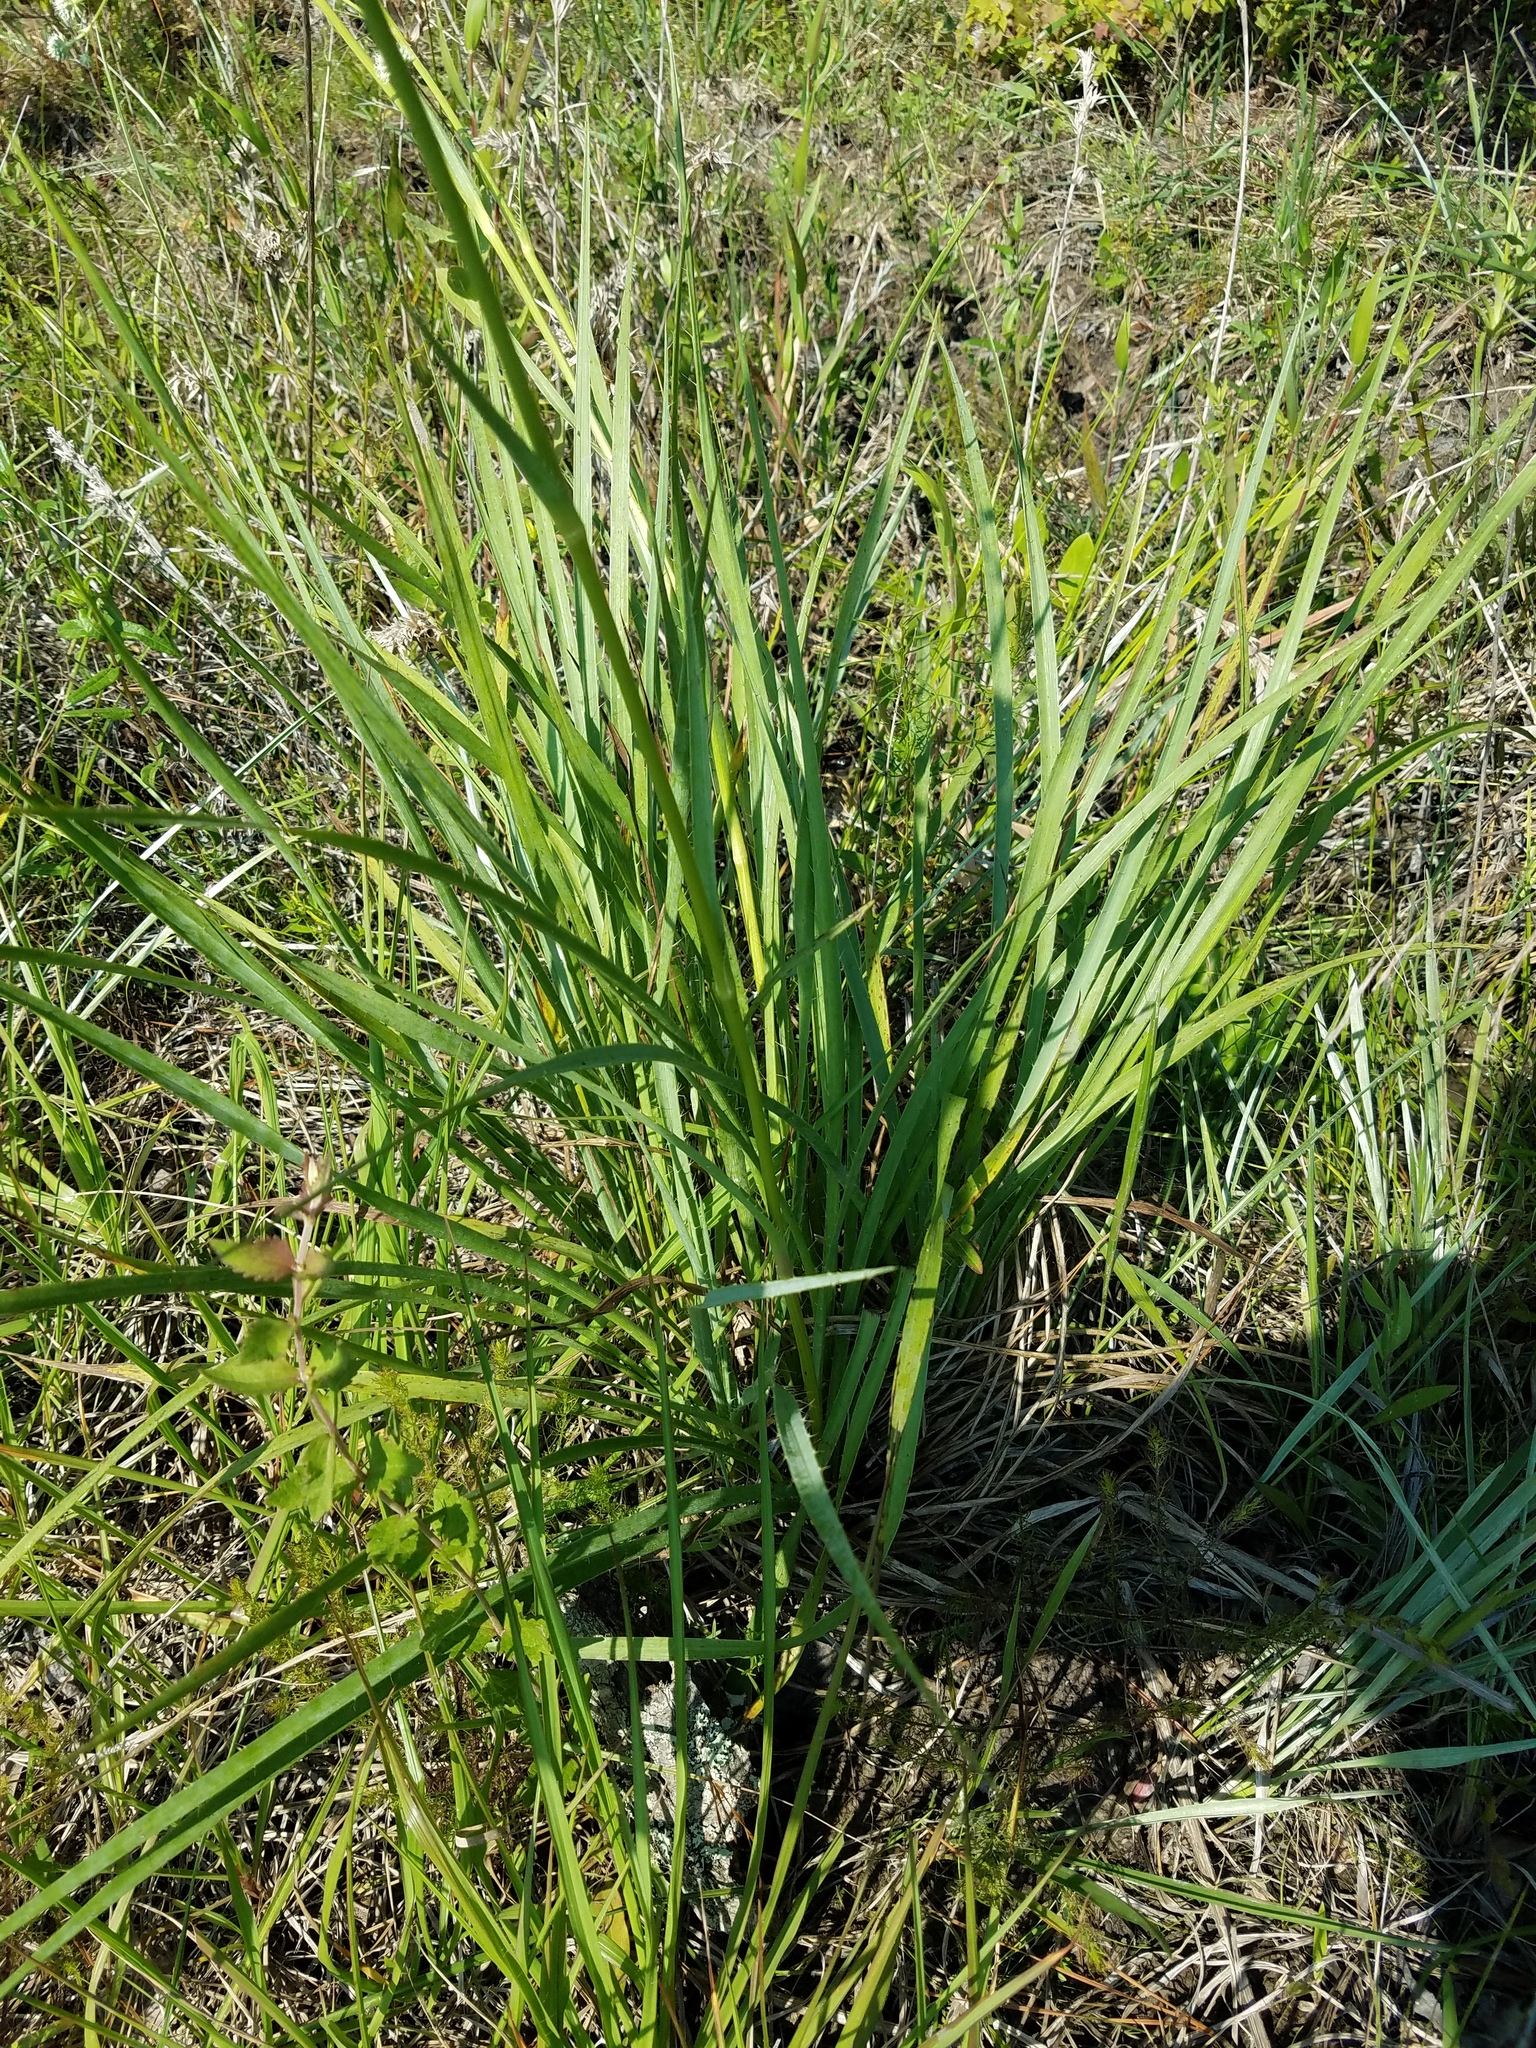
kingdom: Plantae
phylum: Tracheophyta
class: Magnoliopsida
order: Apiales
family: Apiaceae
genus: Eryngium
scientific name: Eryngium yuccifolium
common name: Button eryngo
